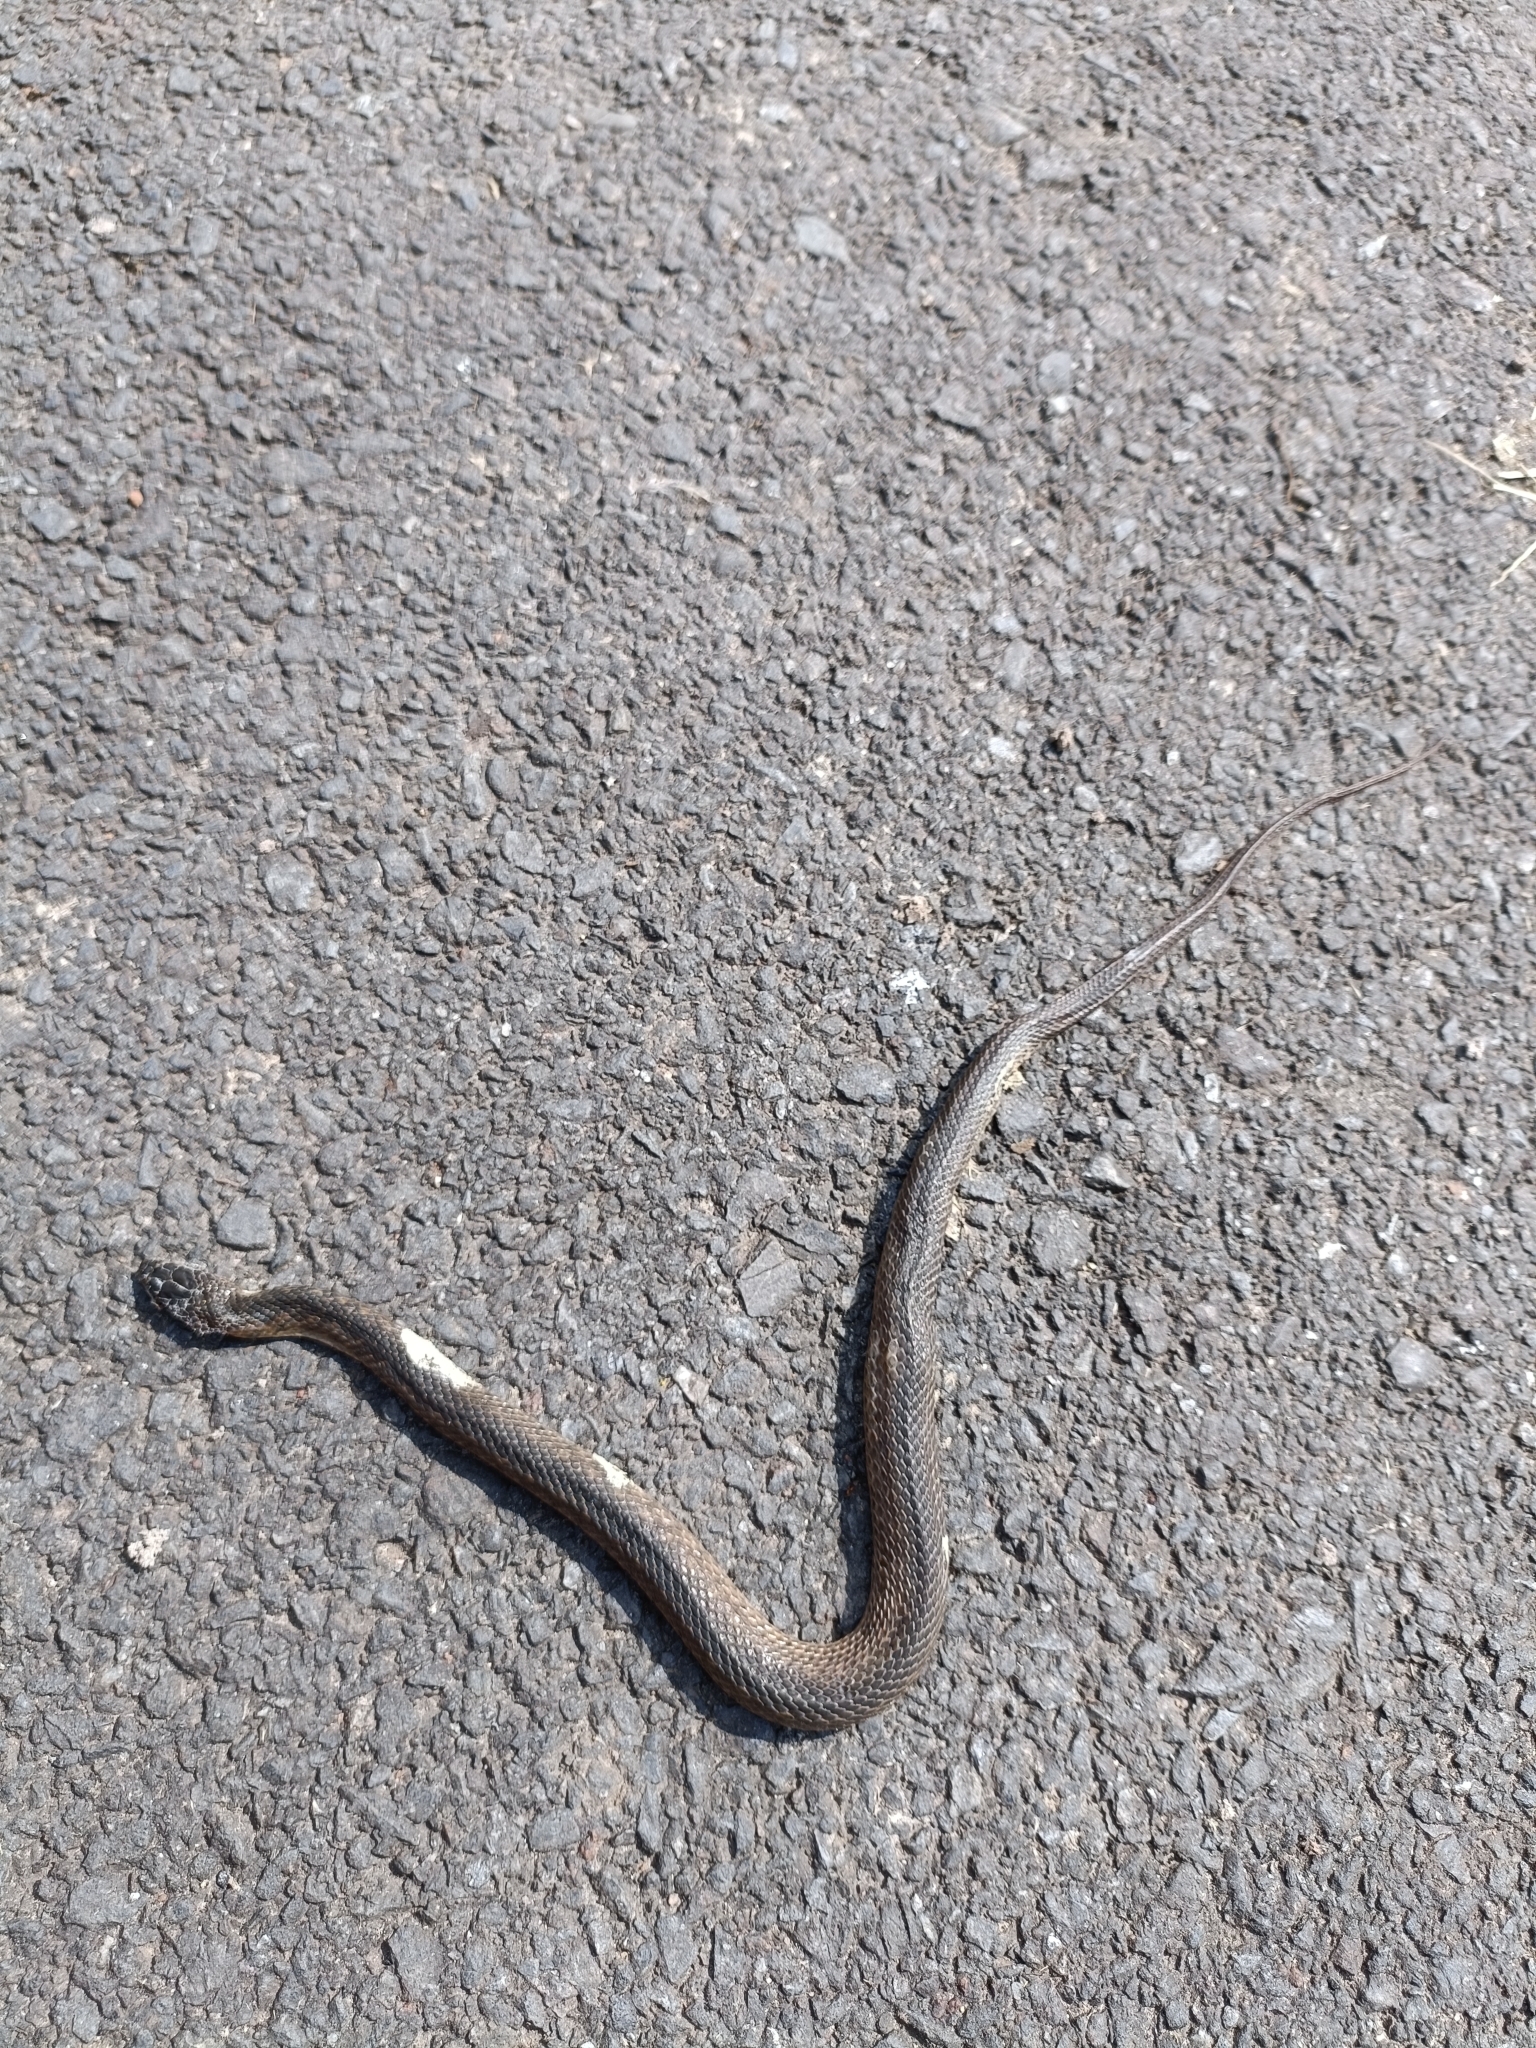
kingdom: Animalia
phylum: Chordata
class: Squamata
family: Colubridae
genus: Fowlea
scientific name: Fowlea piscator
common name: Asiatic water snake
